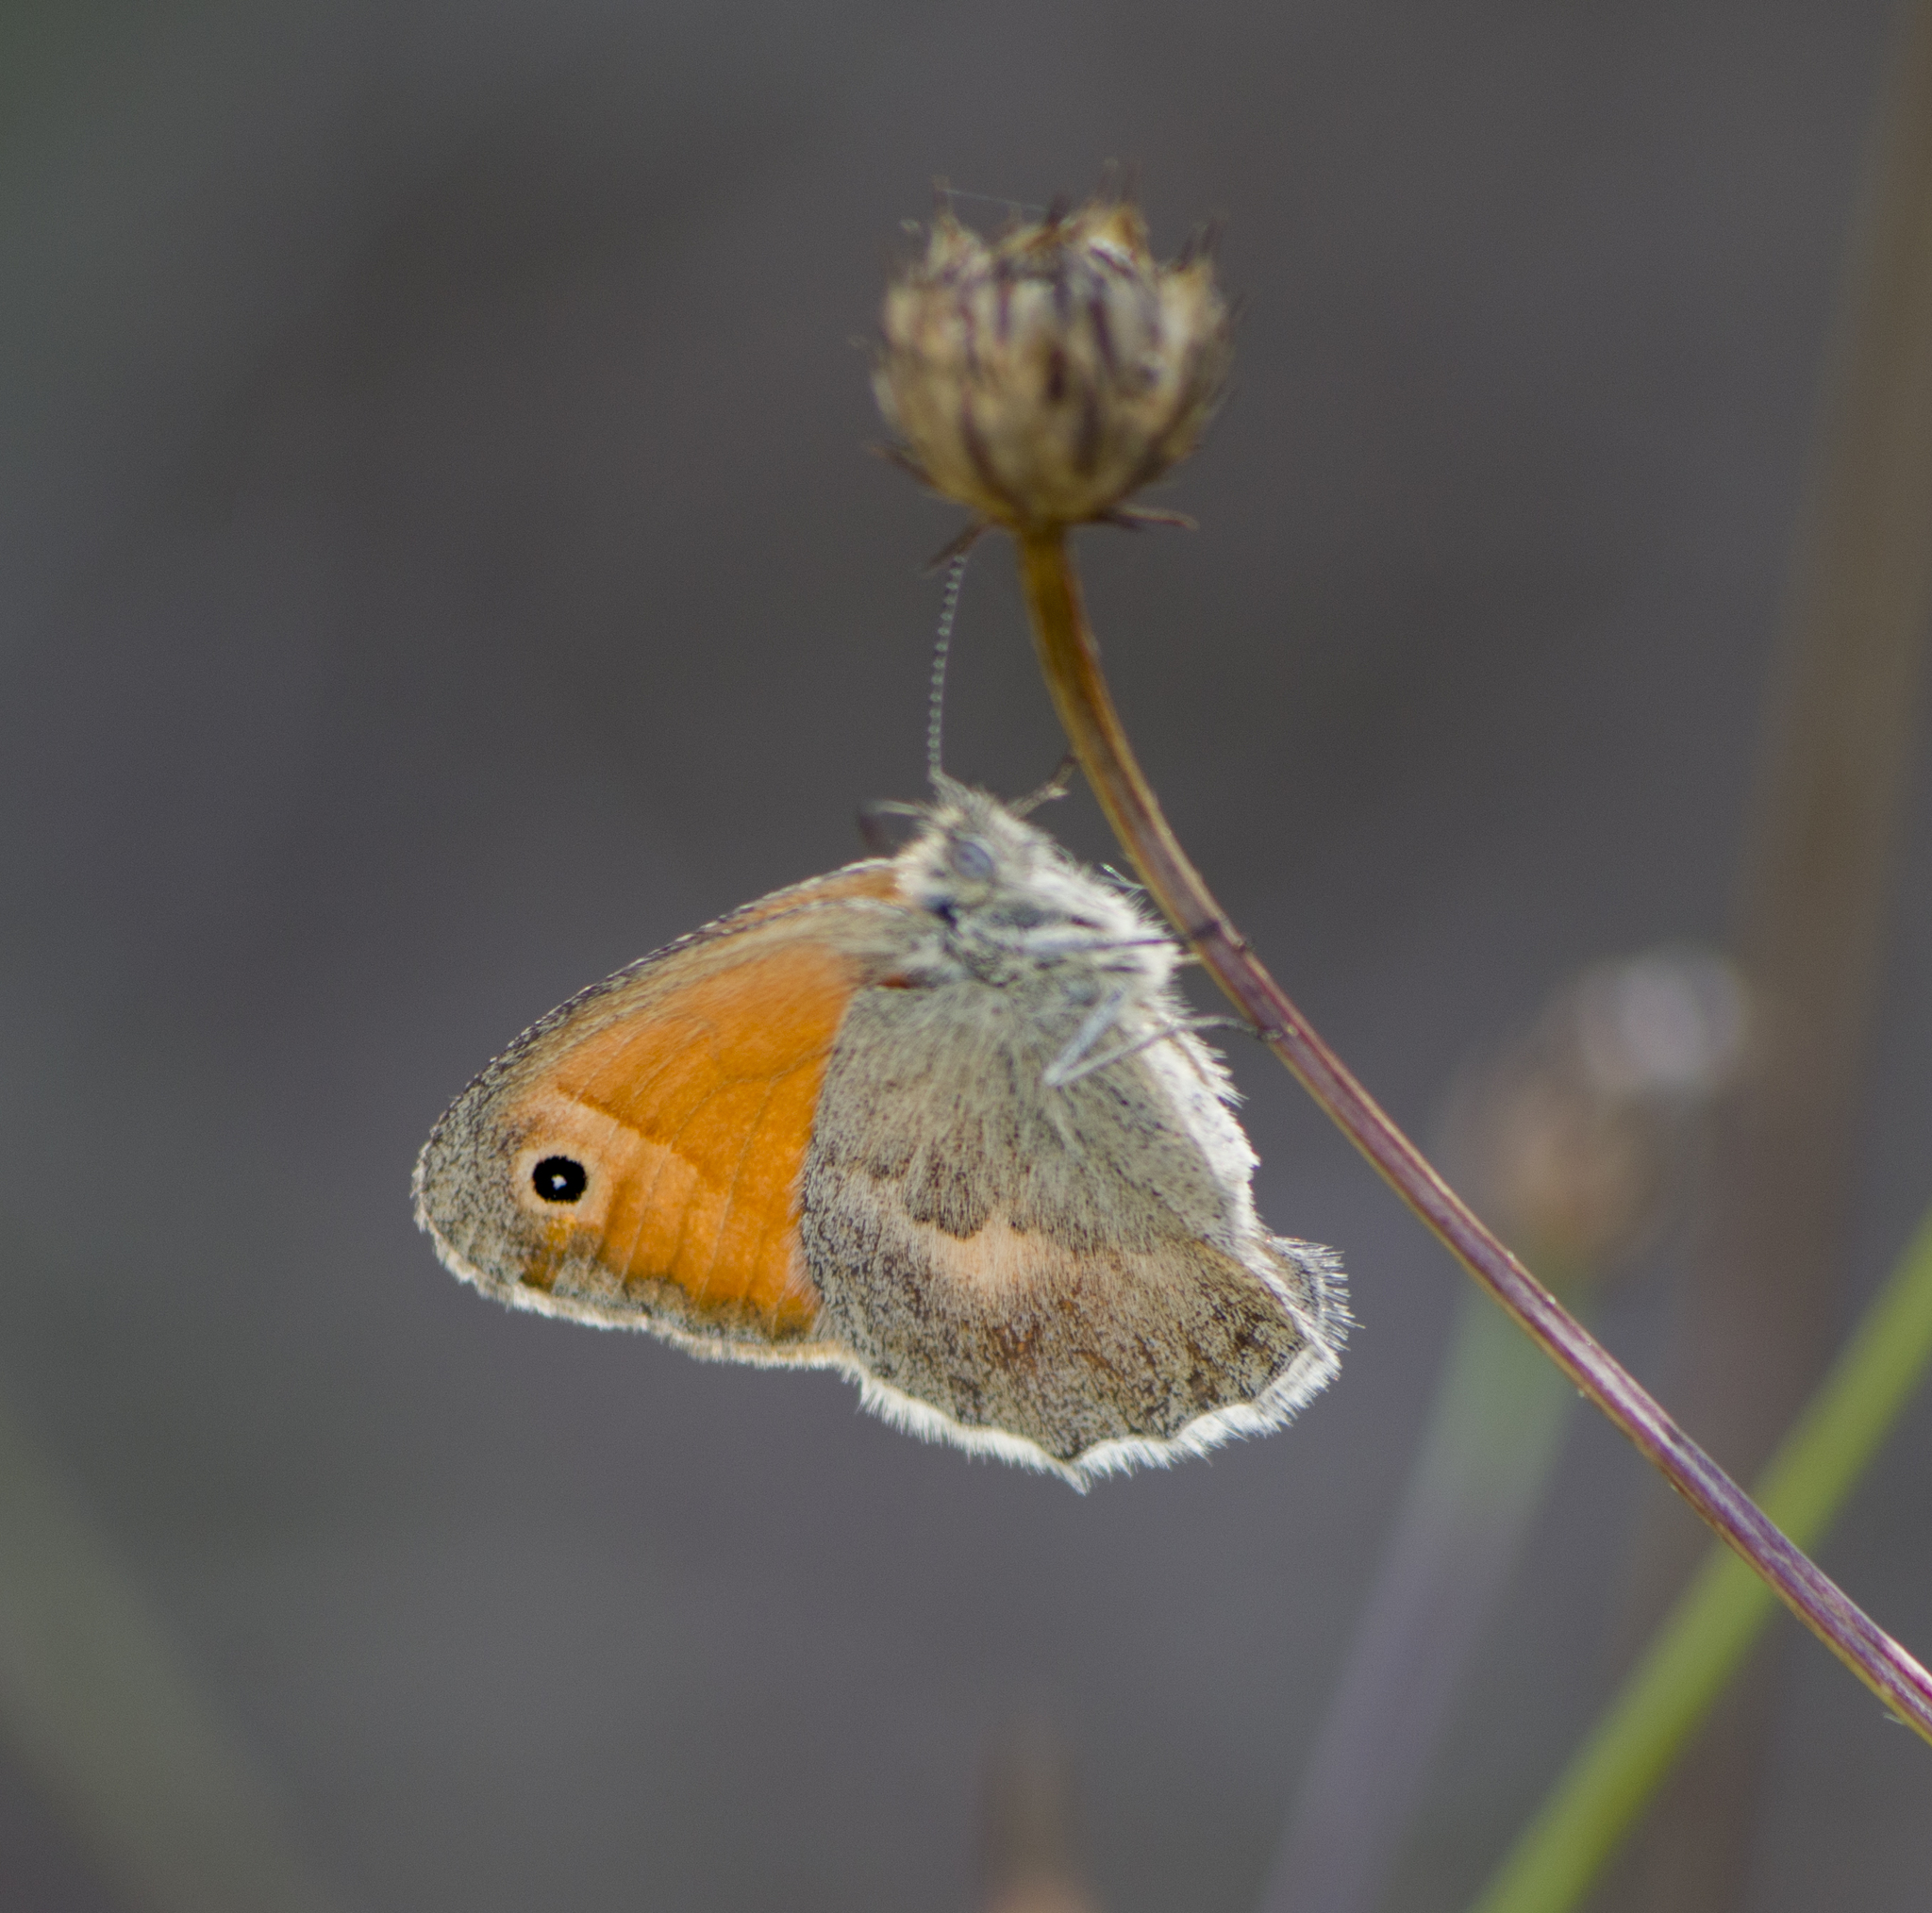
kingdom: Animalia
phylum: Arthropoda
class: Insecta
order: Lepidoptera
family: Nymphalidae
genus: Coenonympha
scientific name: Coenonympha pamphilus
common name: Small heath
